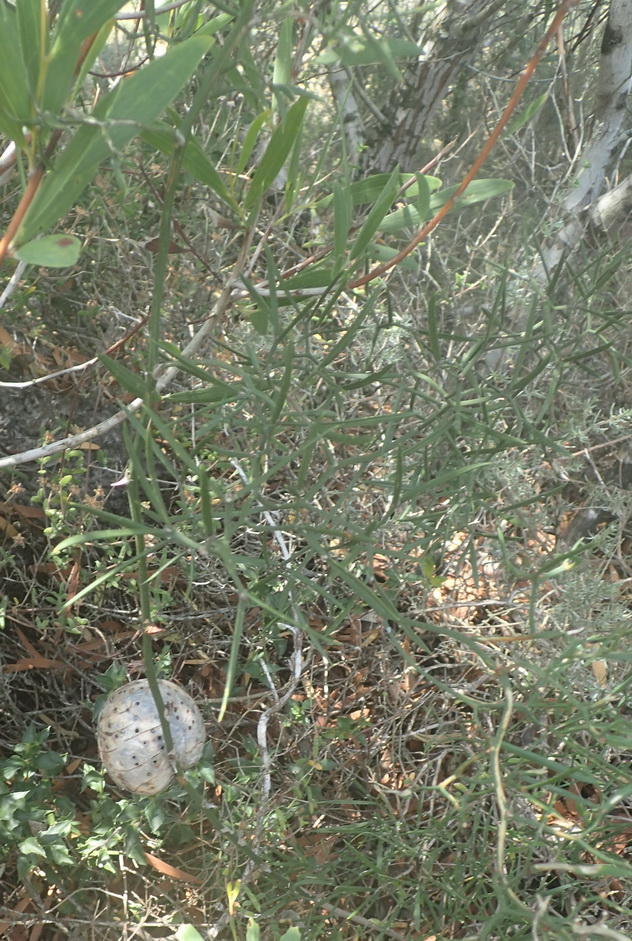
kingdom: Plantae
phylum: Tracheophyta
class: Liliopsida
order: Asparagales
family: Asparagaceae
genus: Asparagus
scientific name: Asparagus striatus
